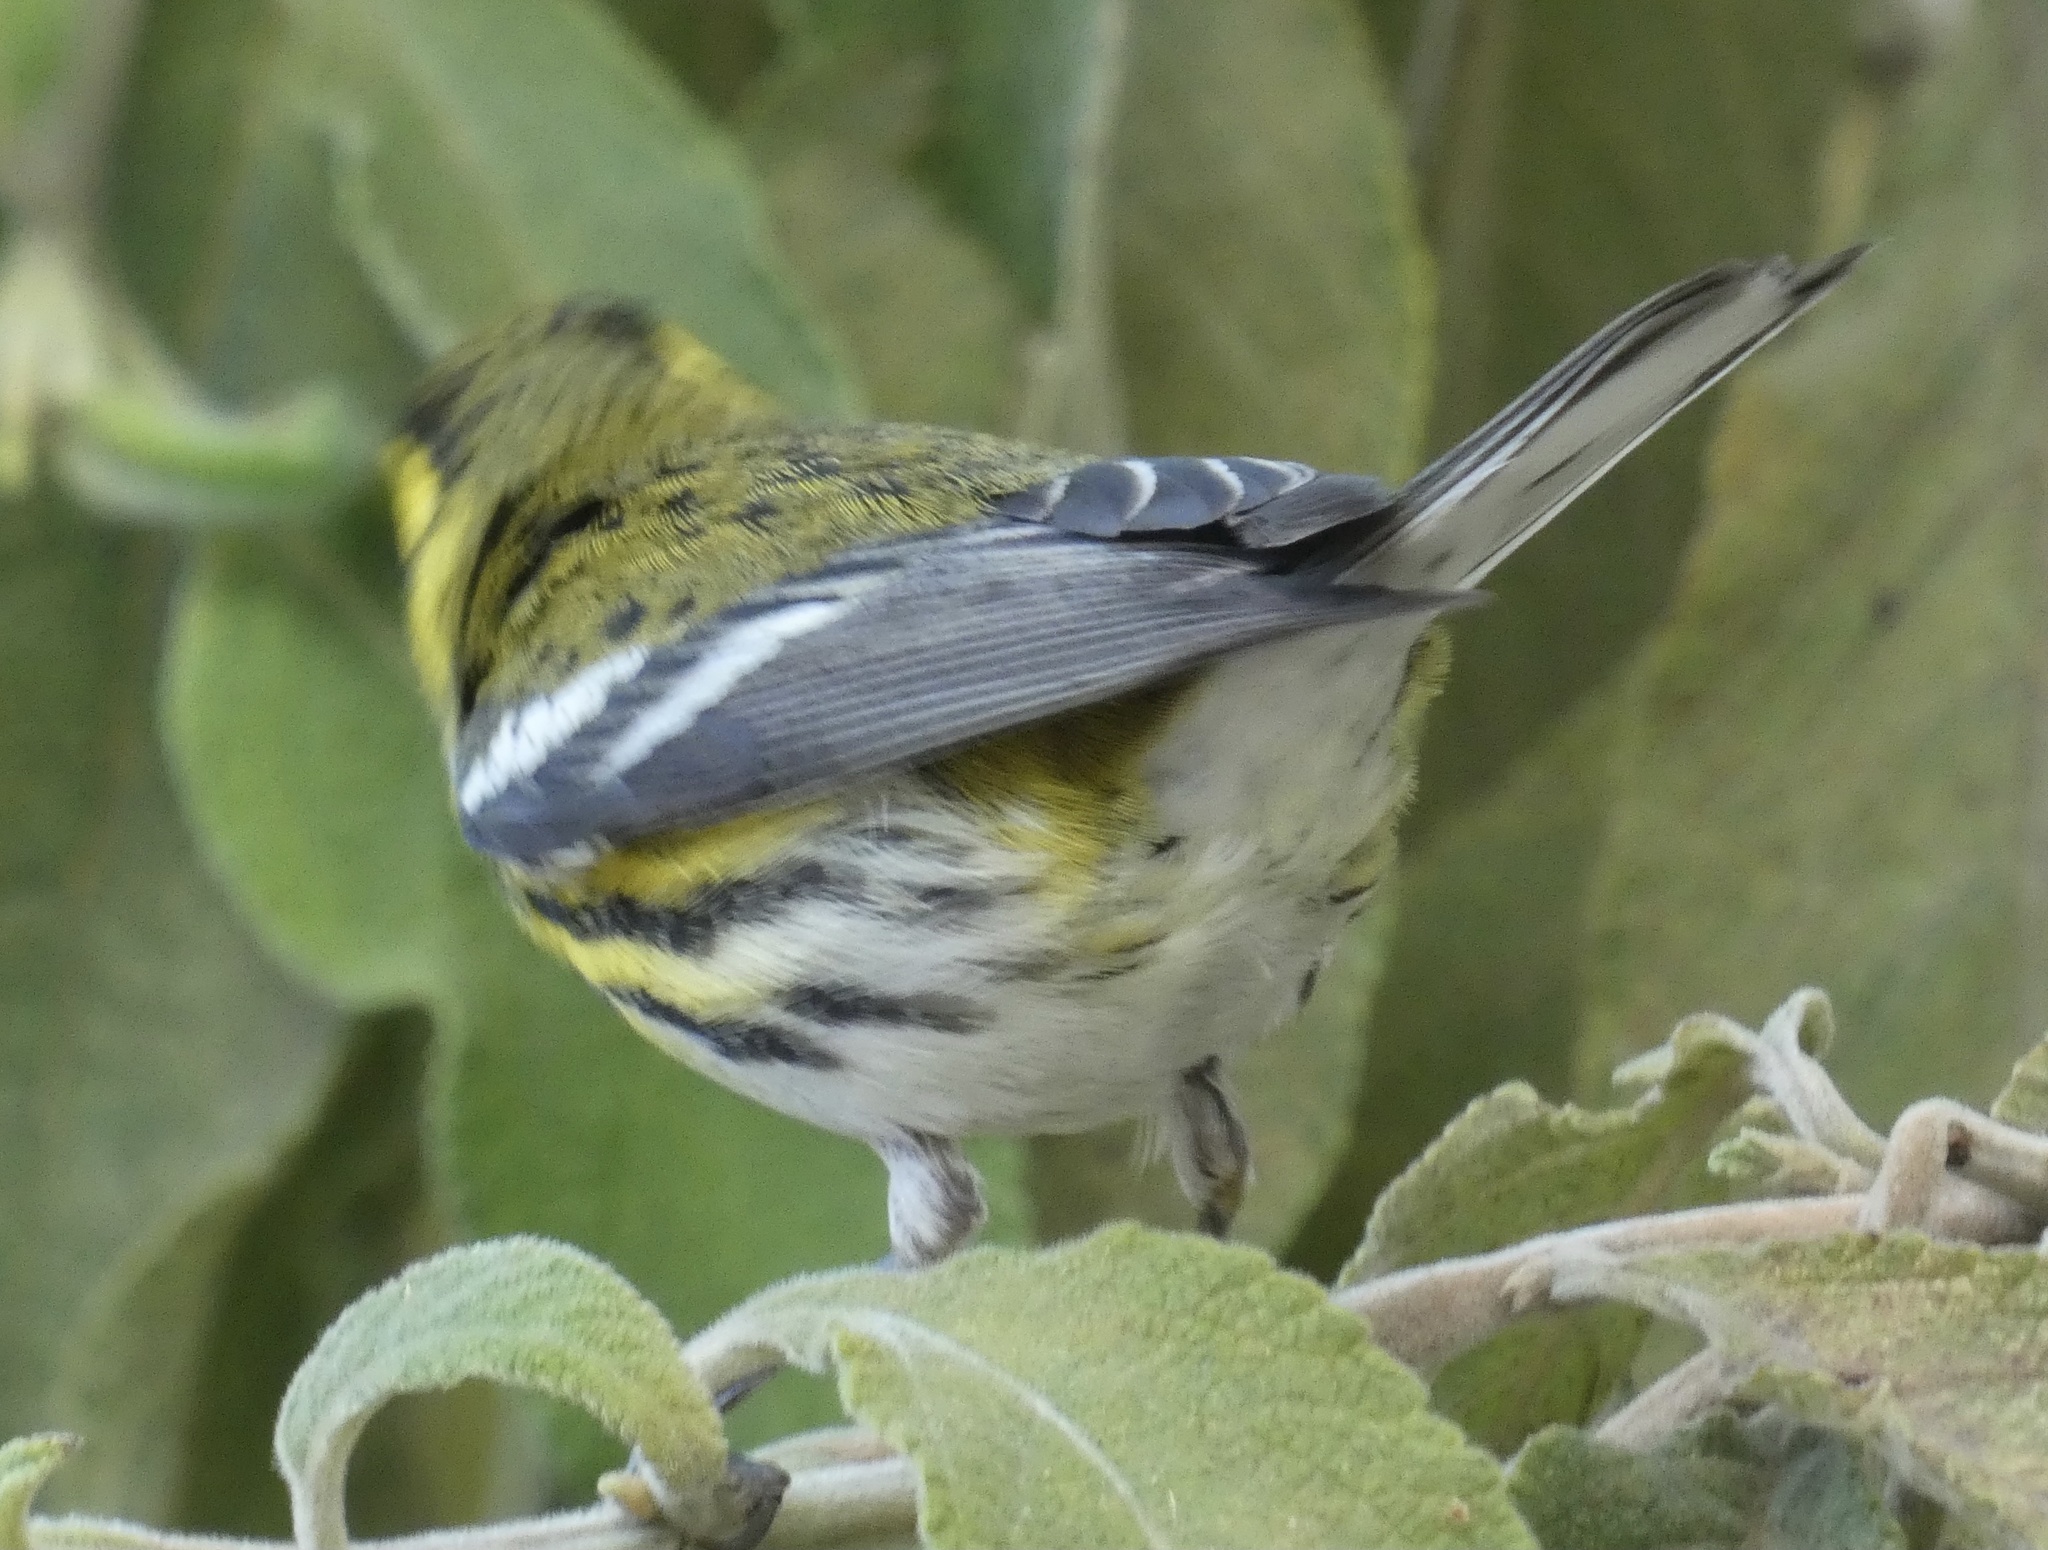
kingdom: Animalia
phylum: Chordata
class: Aves
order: Passeriformes
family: Parulidae
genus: Setophaga
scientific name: Setophaga townsendi
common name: Townsend's warbler
